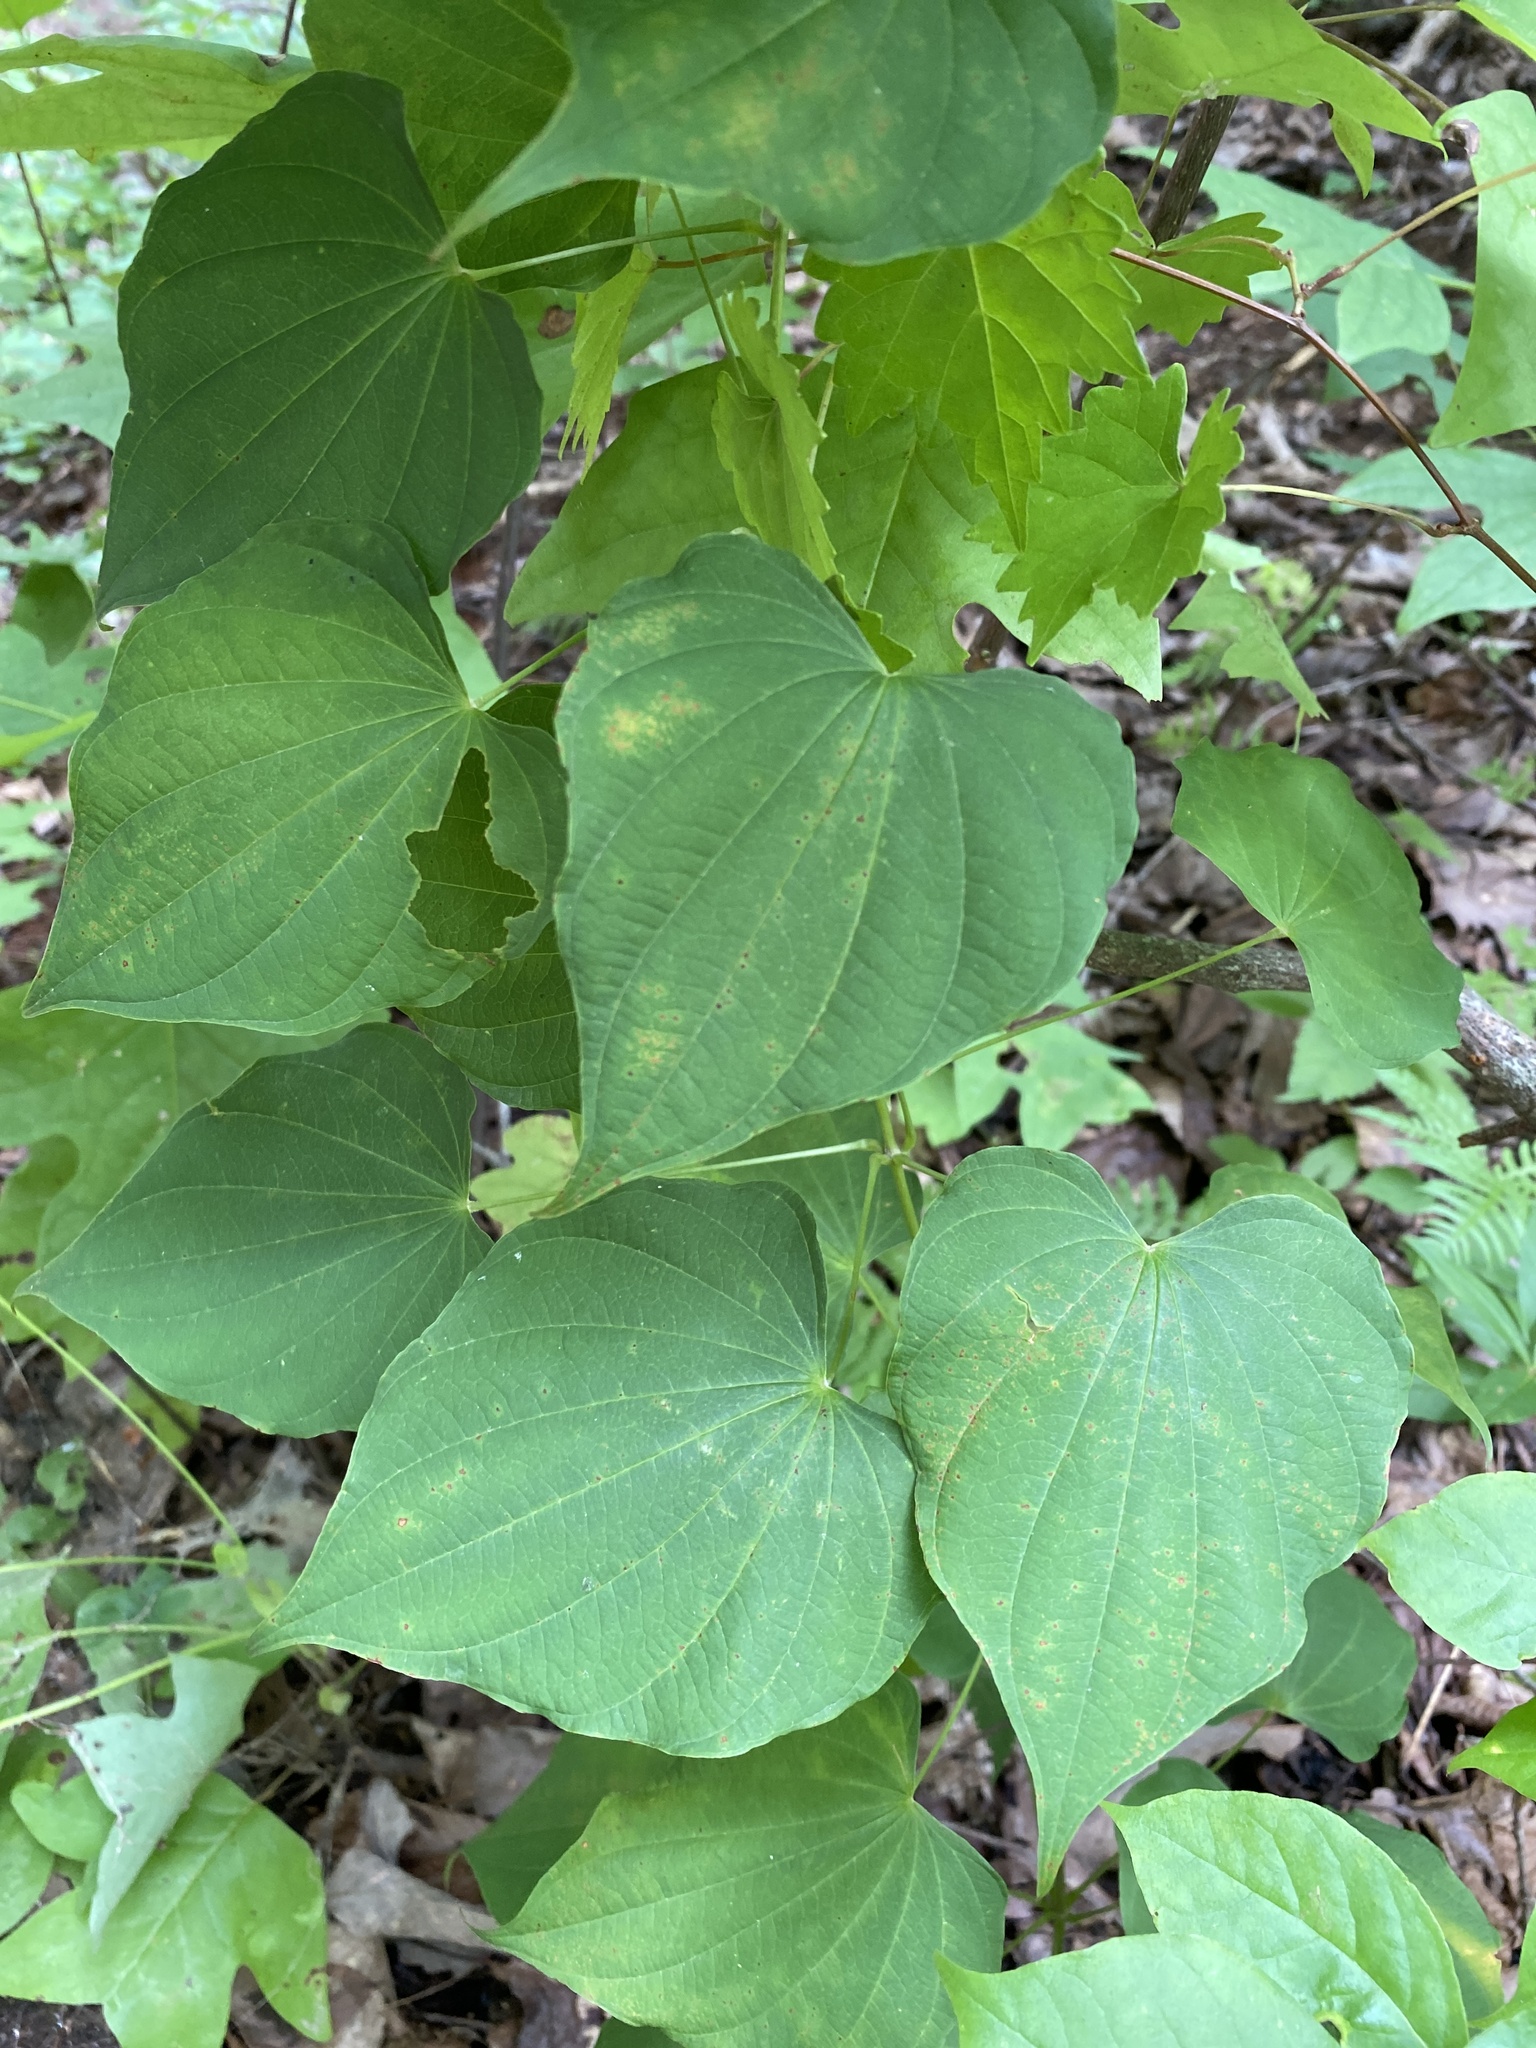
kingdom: Plantae
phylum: Tracheophyta
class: Liliopsida
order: Dioscoreales
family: Dioscoreaceae
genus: Dioscorea
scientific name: Dioscorea villosa
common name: Wild yam
